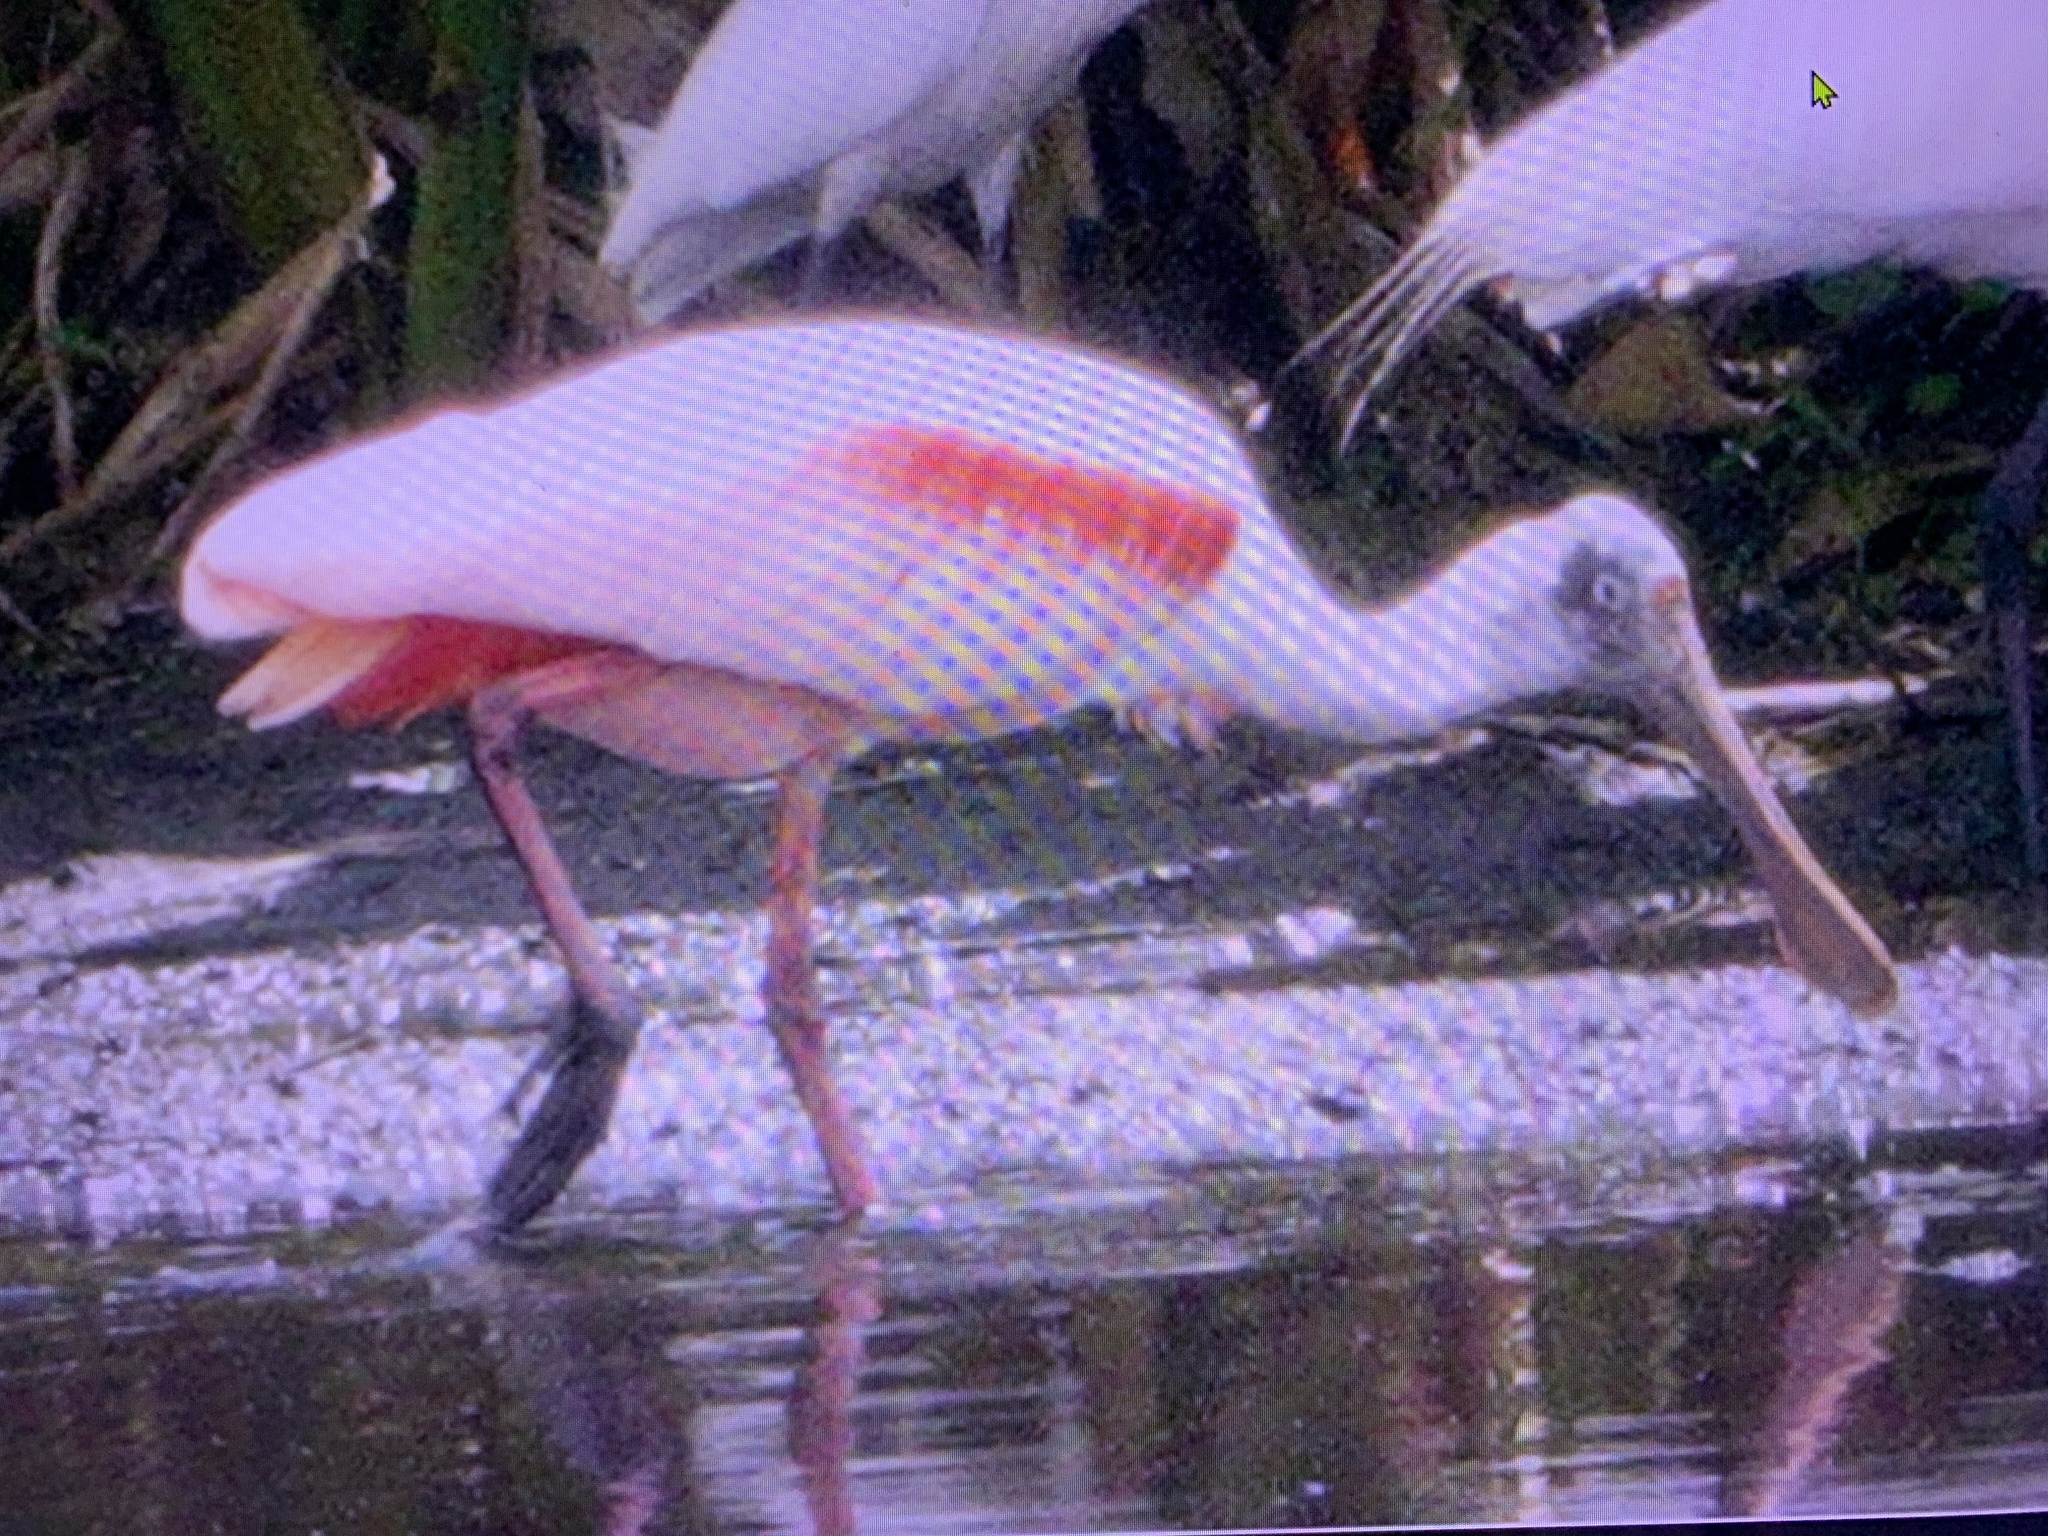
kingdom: Animalia
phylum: Chordata
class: Aves
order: Pelecaniformes
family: Threskiornithidae
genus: Platalea
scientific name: Platalea ajaja
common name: Roseate spoonbill
